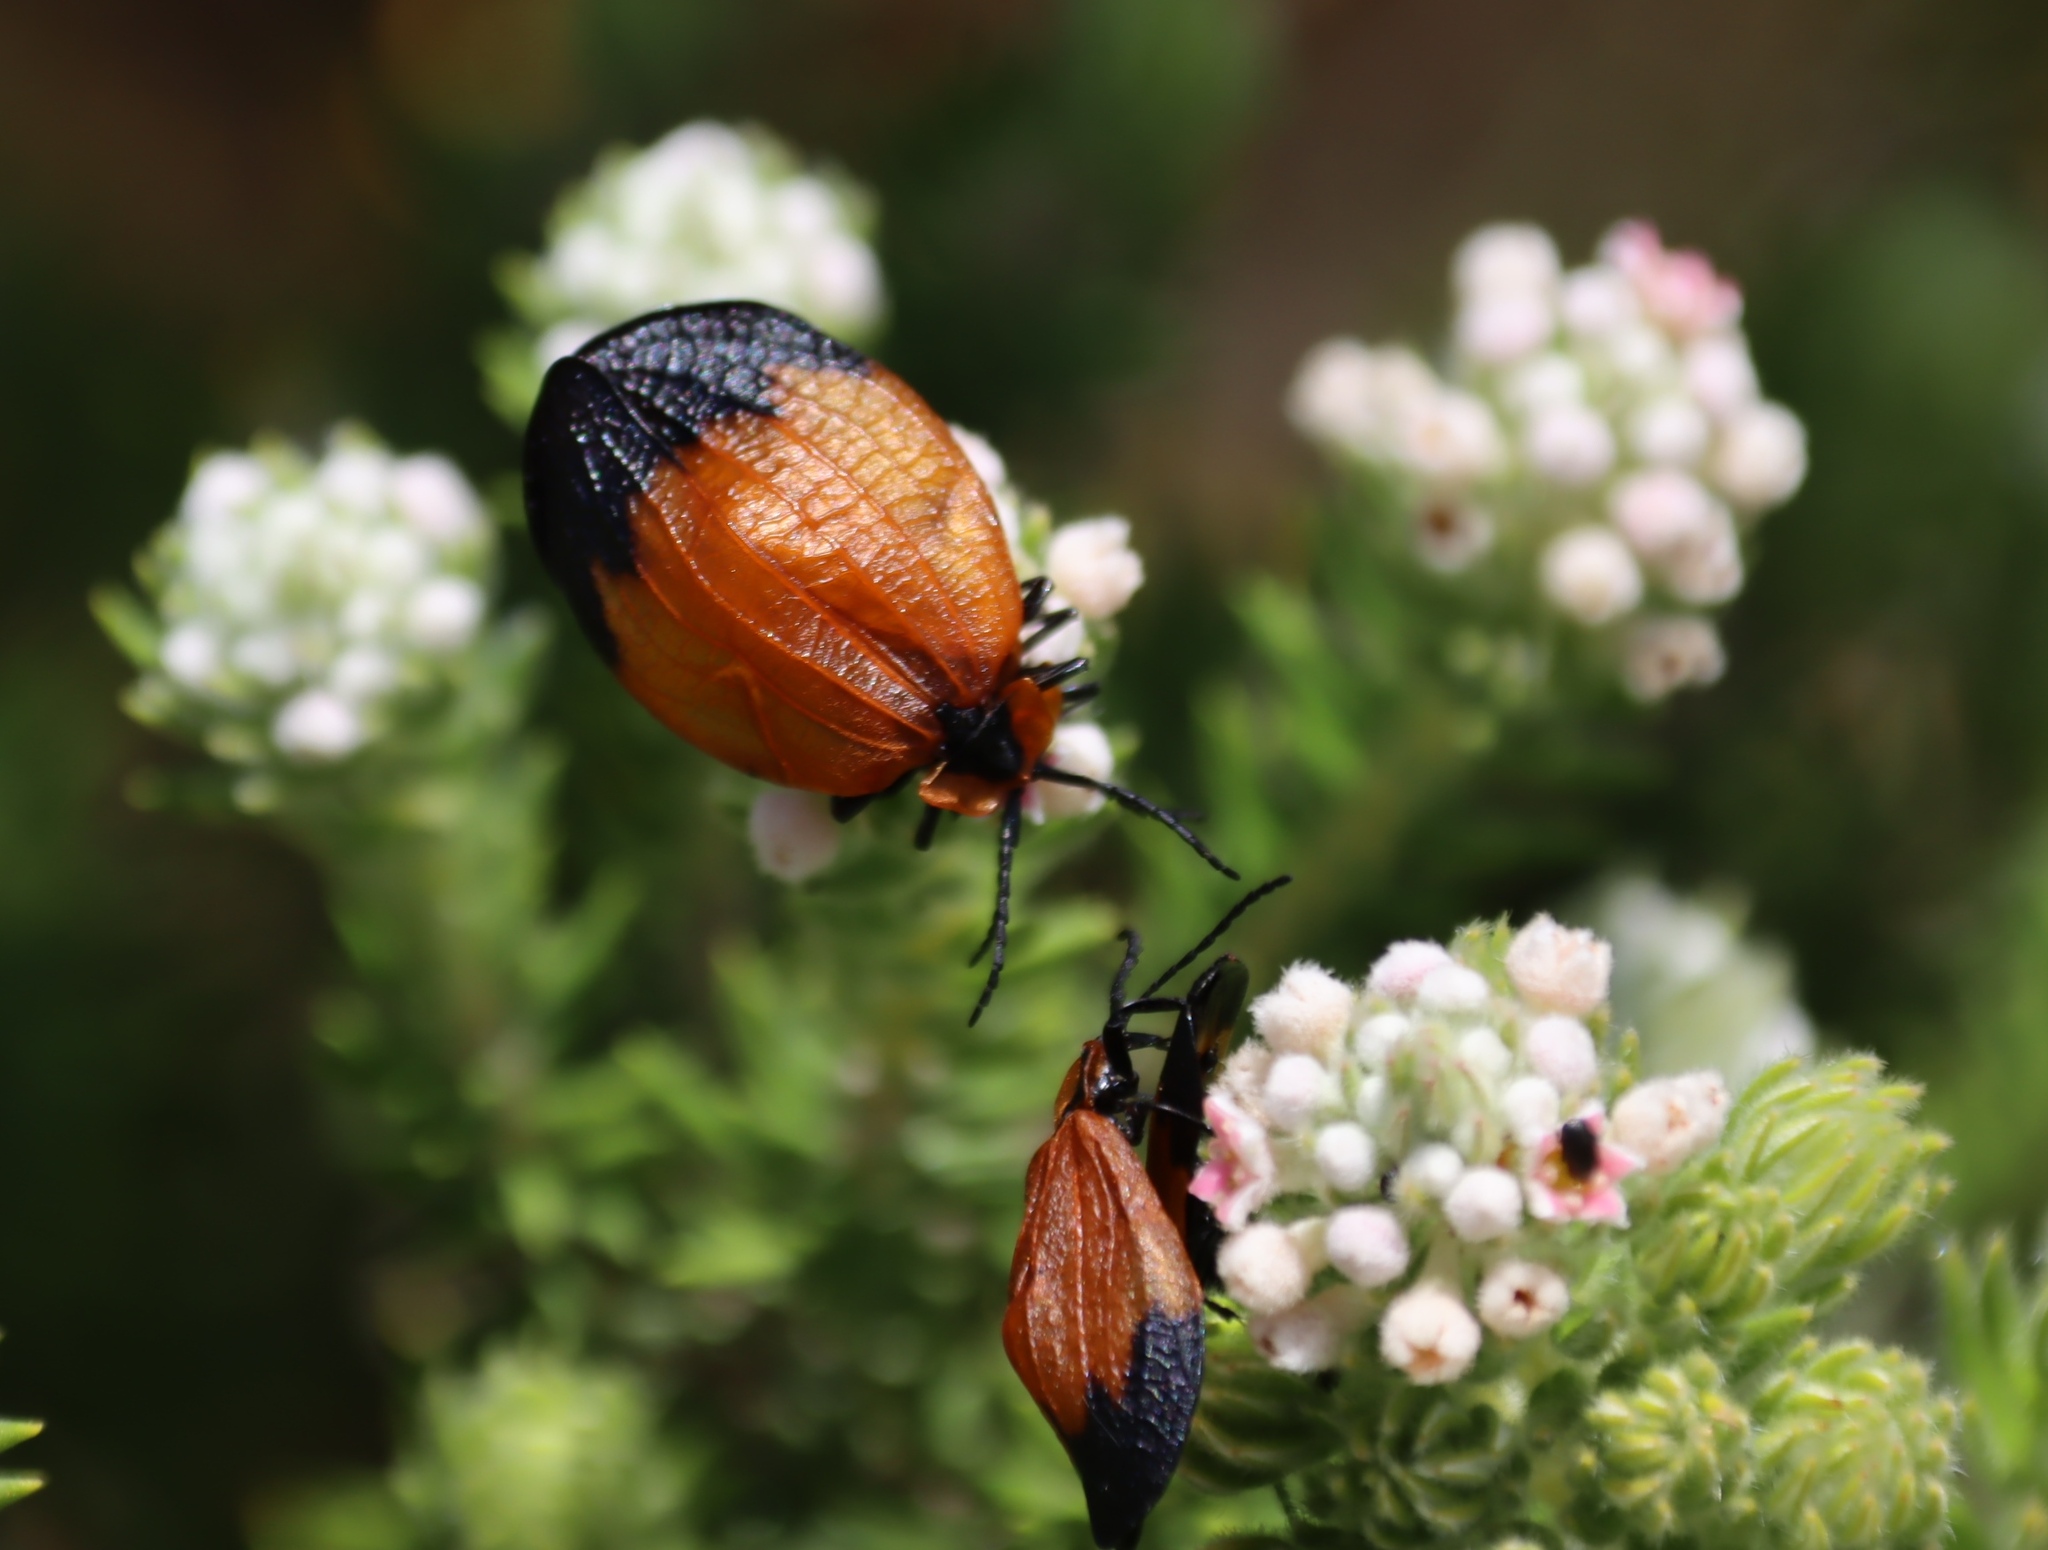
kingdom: Animalia
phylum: Arthropoda
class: Insecta
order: Coleoptera
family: Lycidae
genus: Lycus
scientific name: Lycus
